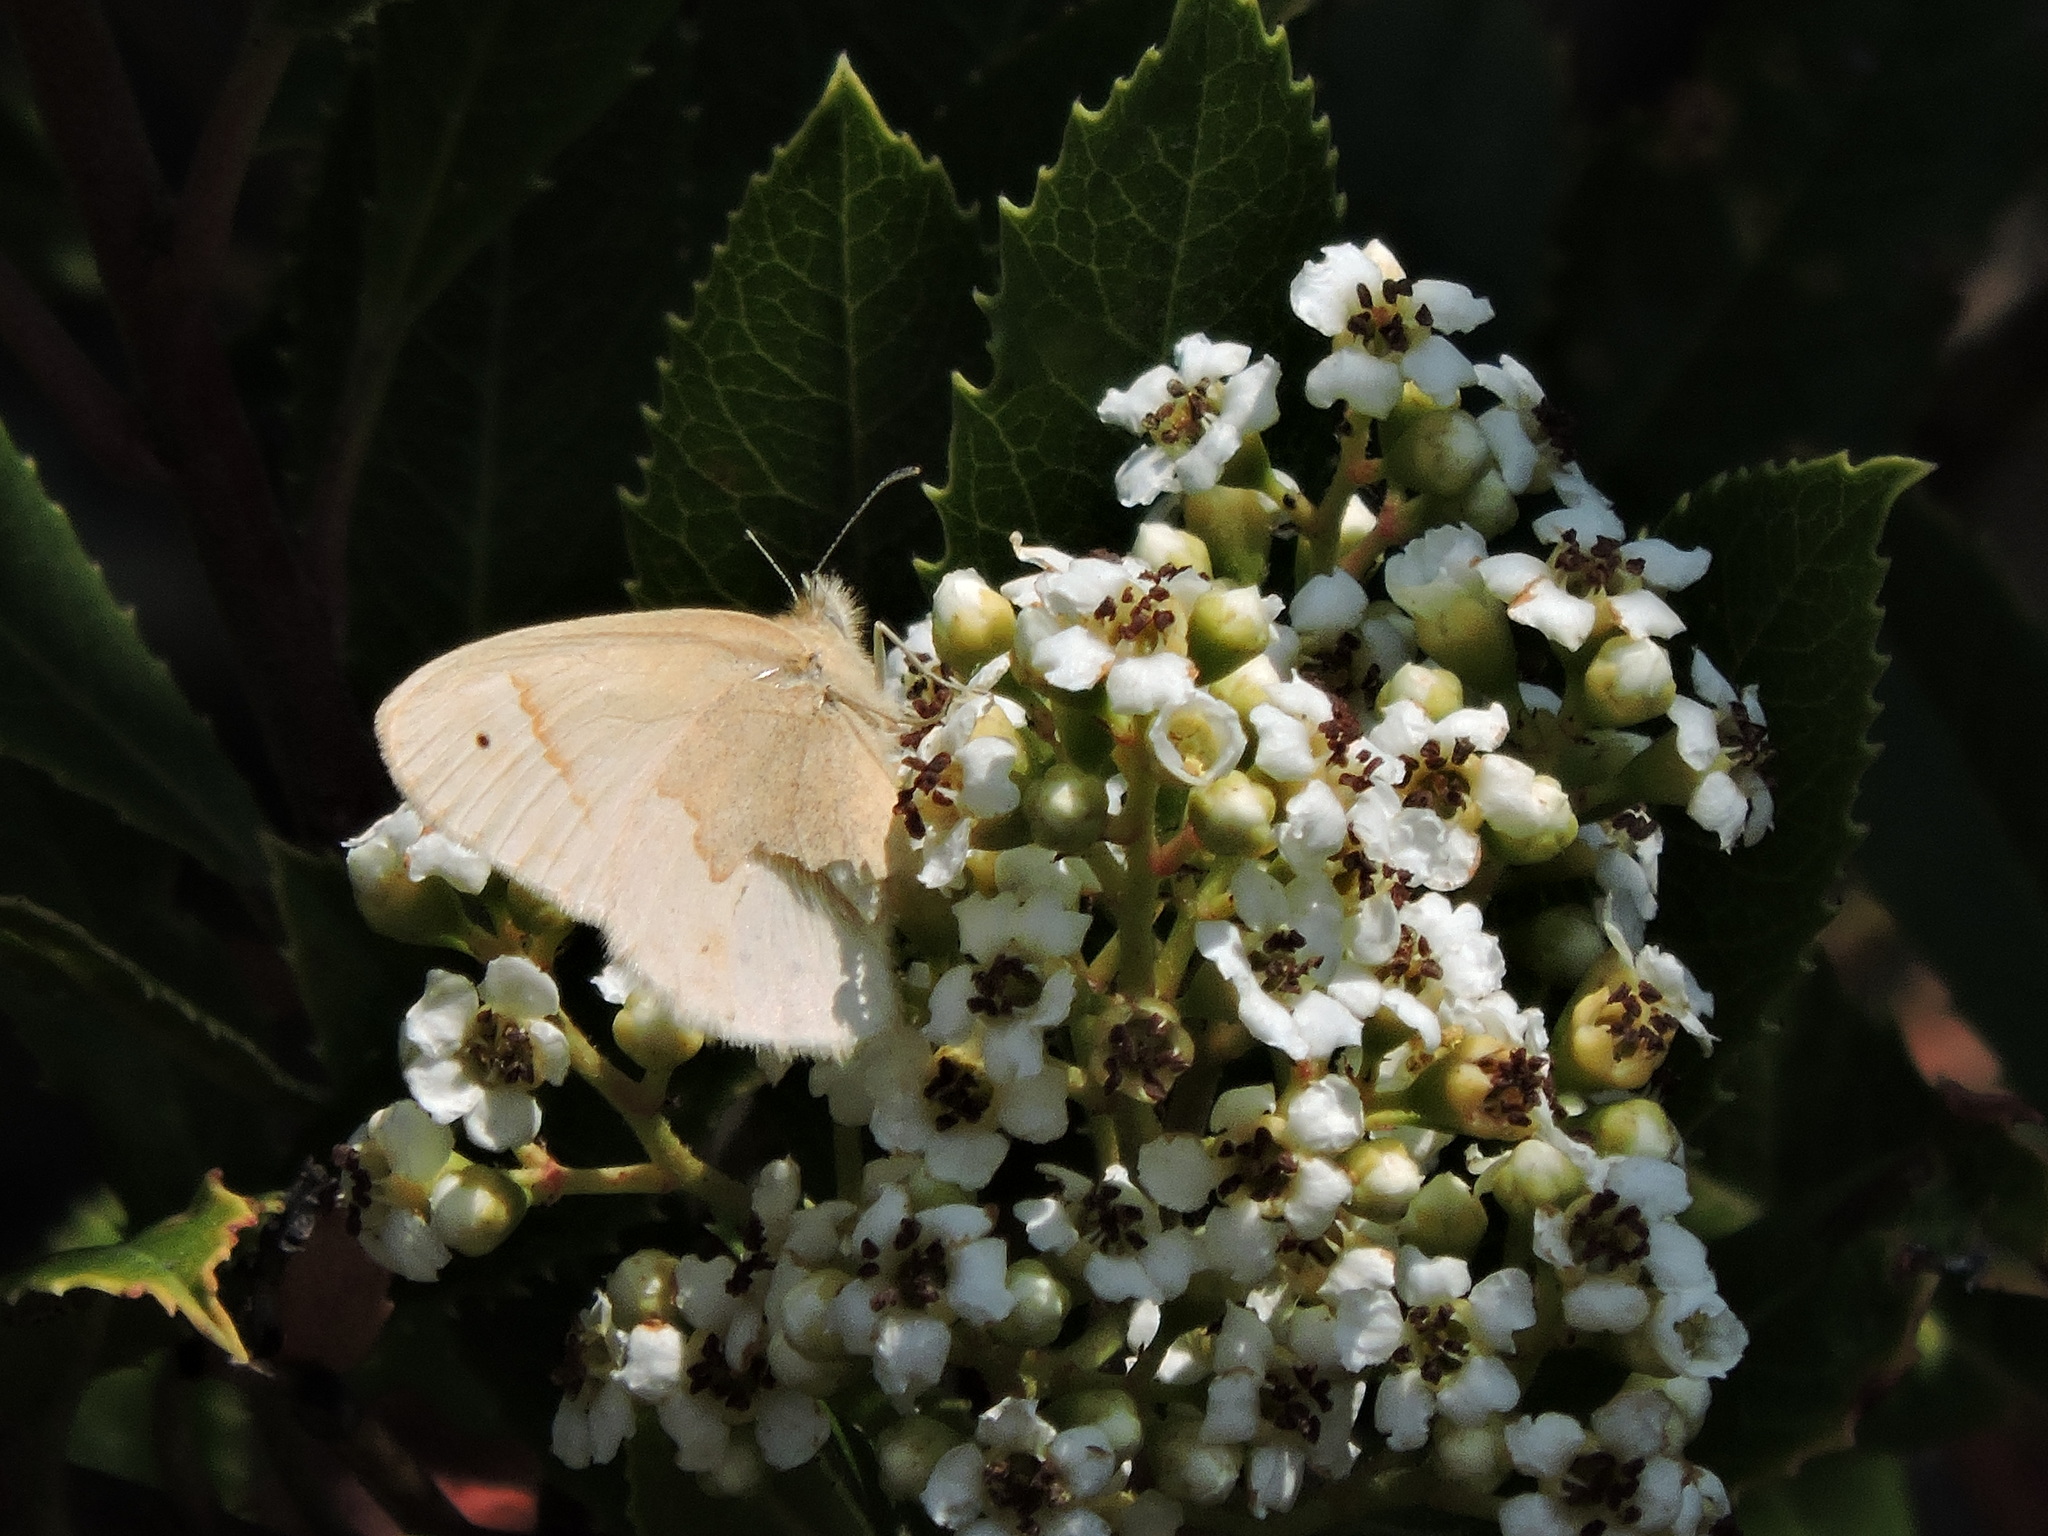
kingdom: Animalia
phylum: Arthropoda
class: Insecta
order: Lepidoptera
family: Nymphalidae
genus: Coenonympha
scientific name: Coenonympha california
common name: Common ringlet
